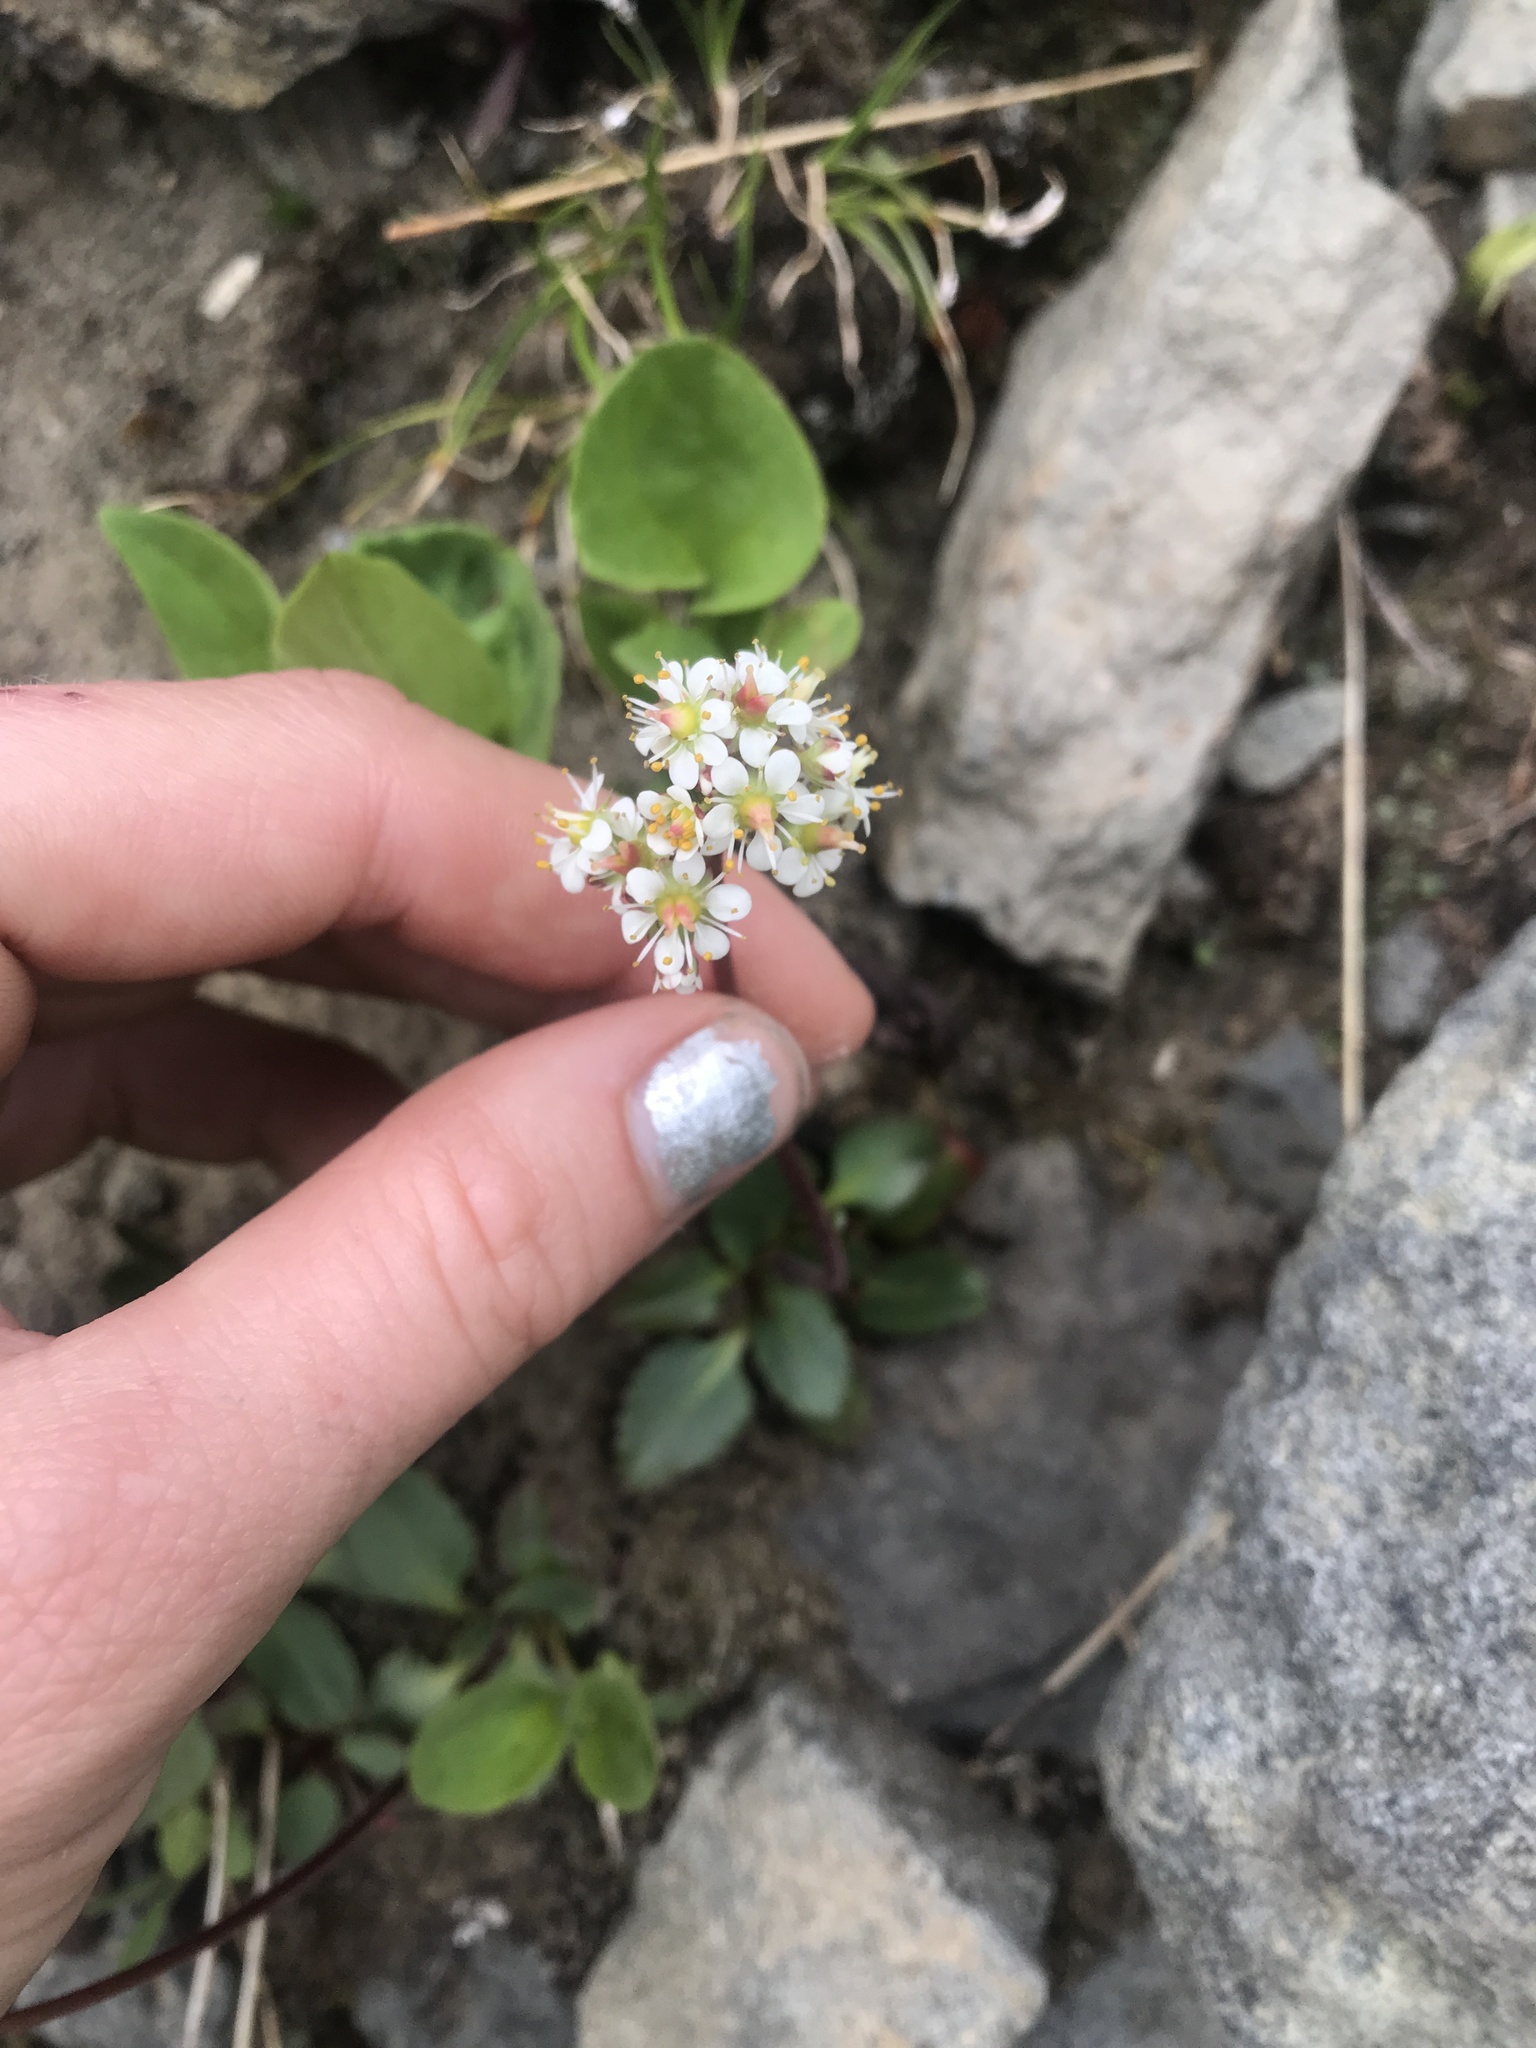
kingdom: Plantae
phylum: Tracheophyta
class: Magnoliopsida
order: Saxifragales
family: Saxifragaceae
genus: Micranthes
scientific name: Micranthes occidentalis
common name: Alberta saxifrage
